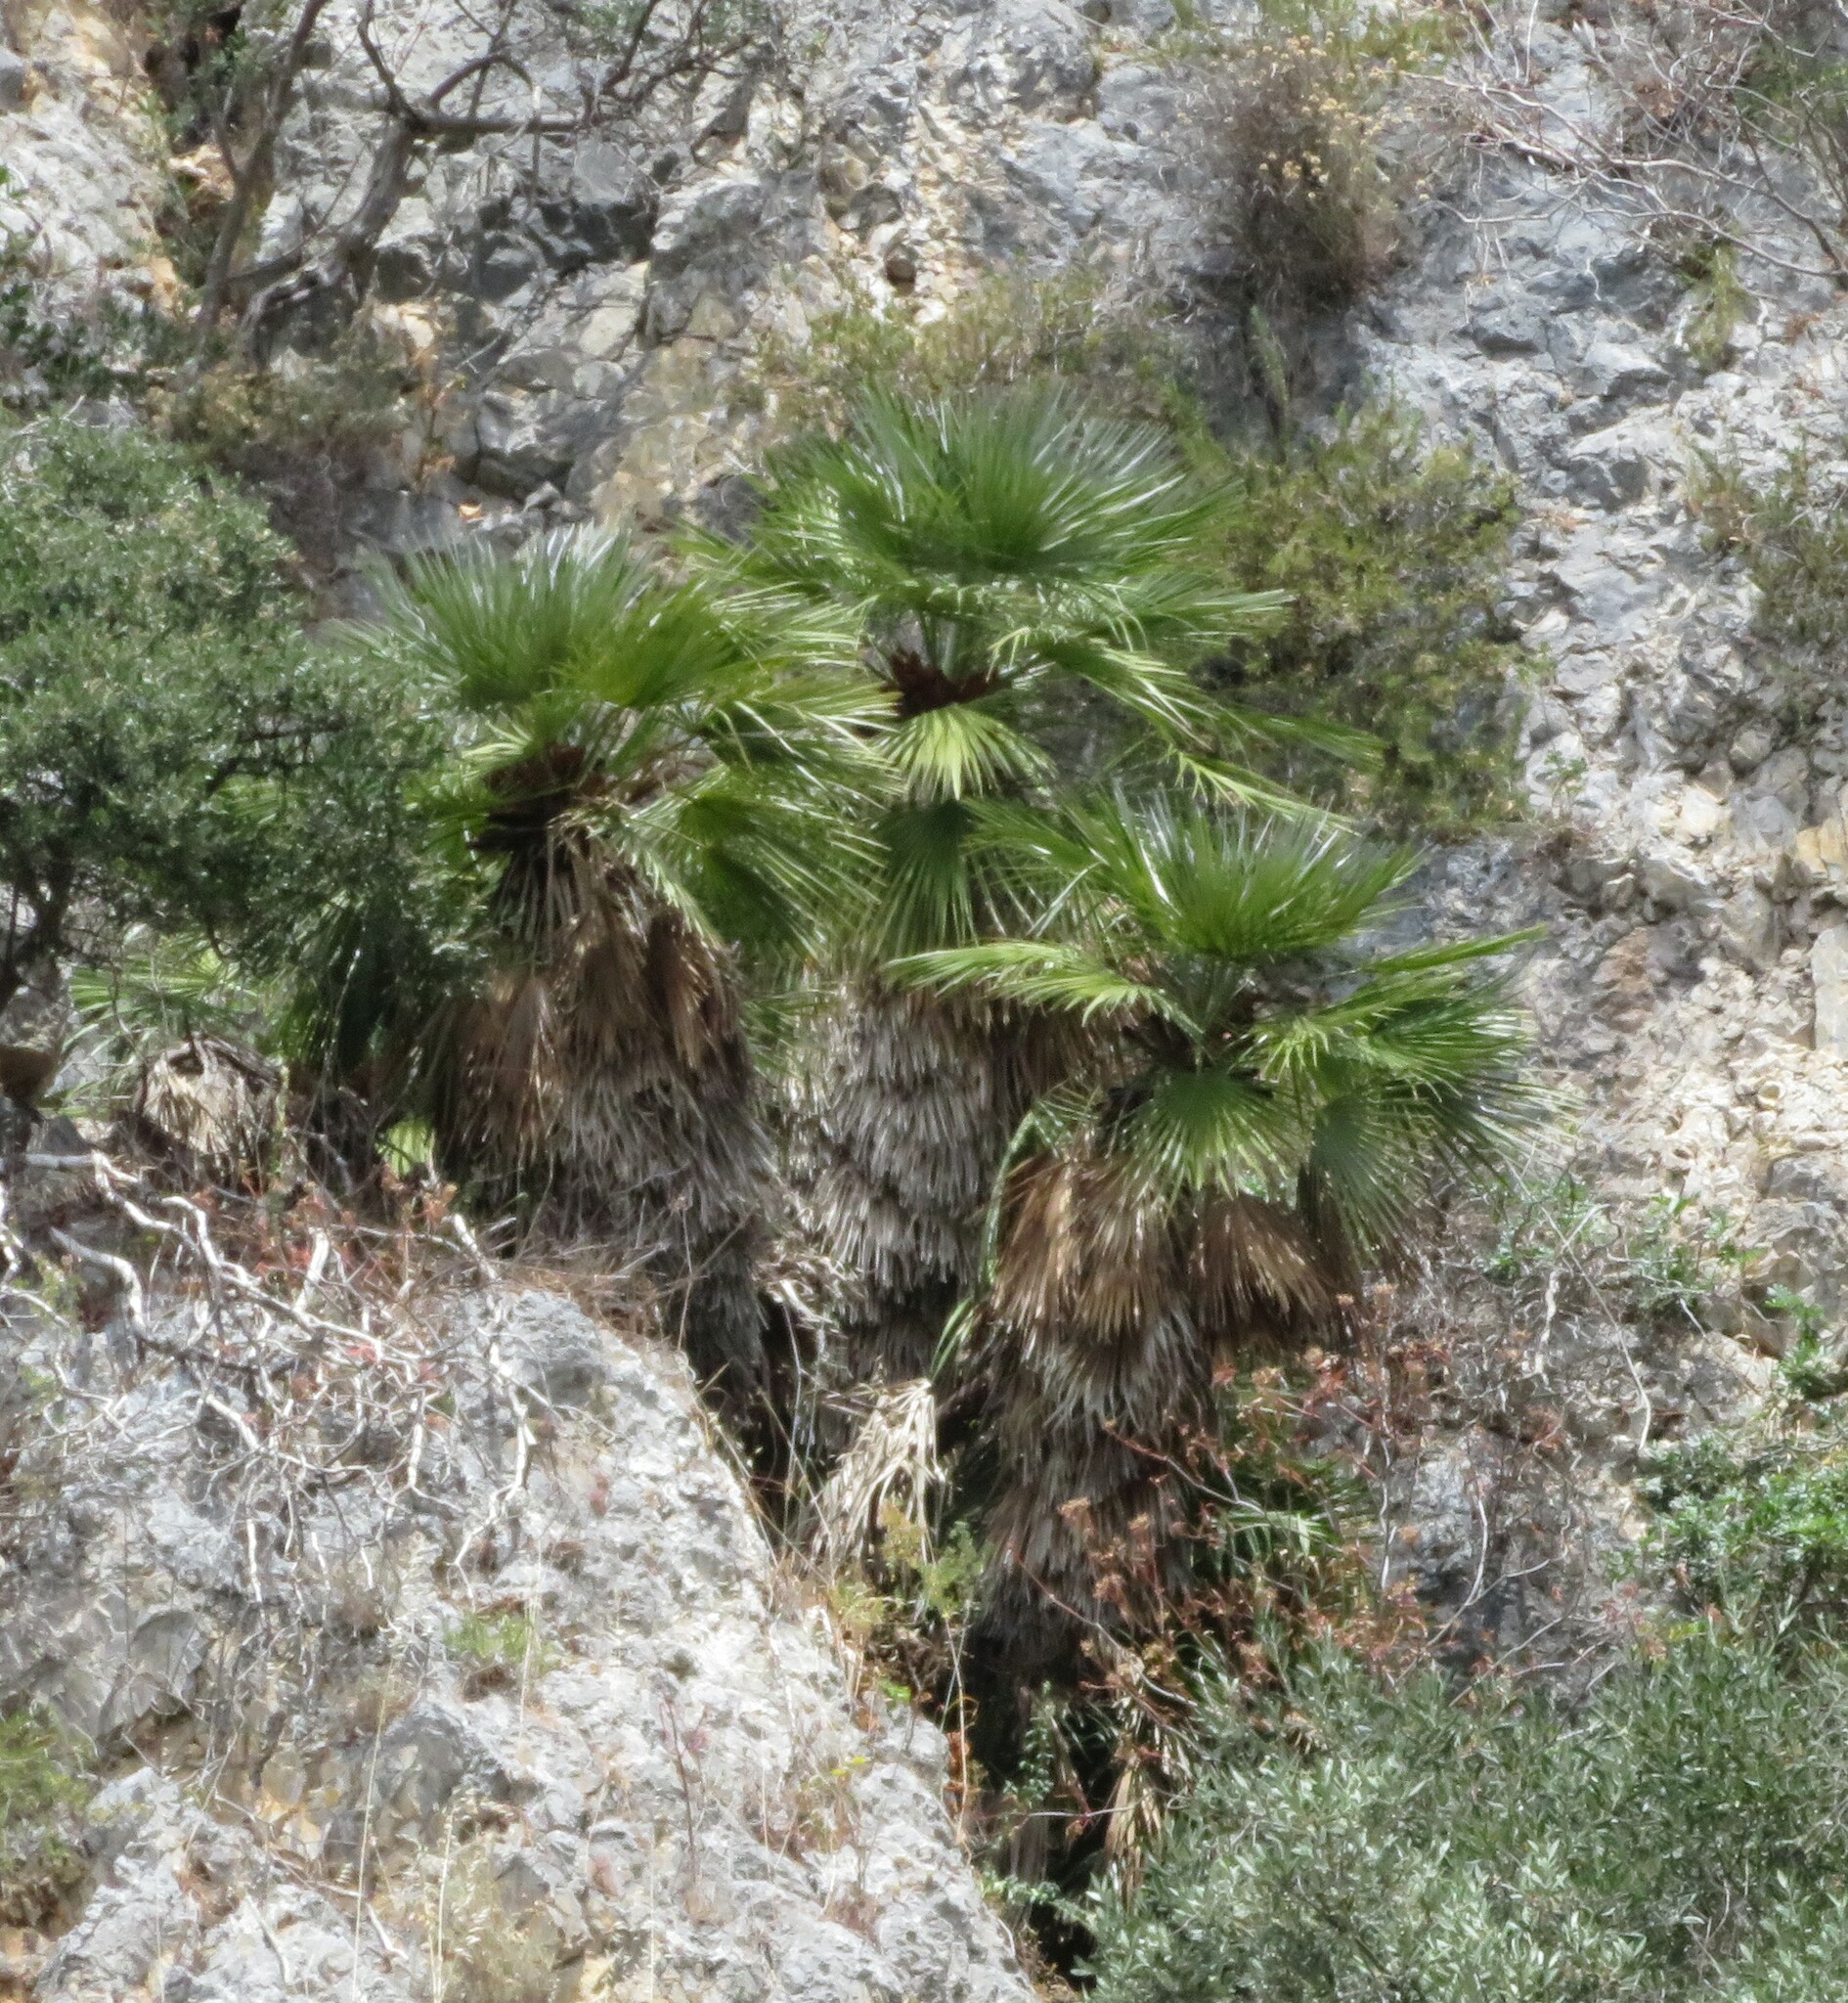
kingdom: Plantae
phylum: Tracheophyta
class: Liliopsida
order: Arecales
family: Arecaceae
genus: Chamaerops
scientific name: Chamaerops humilis
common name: Dwarf fan palm
